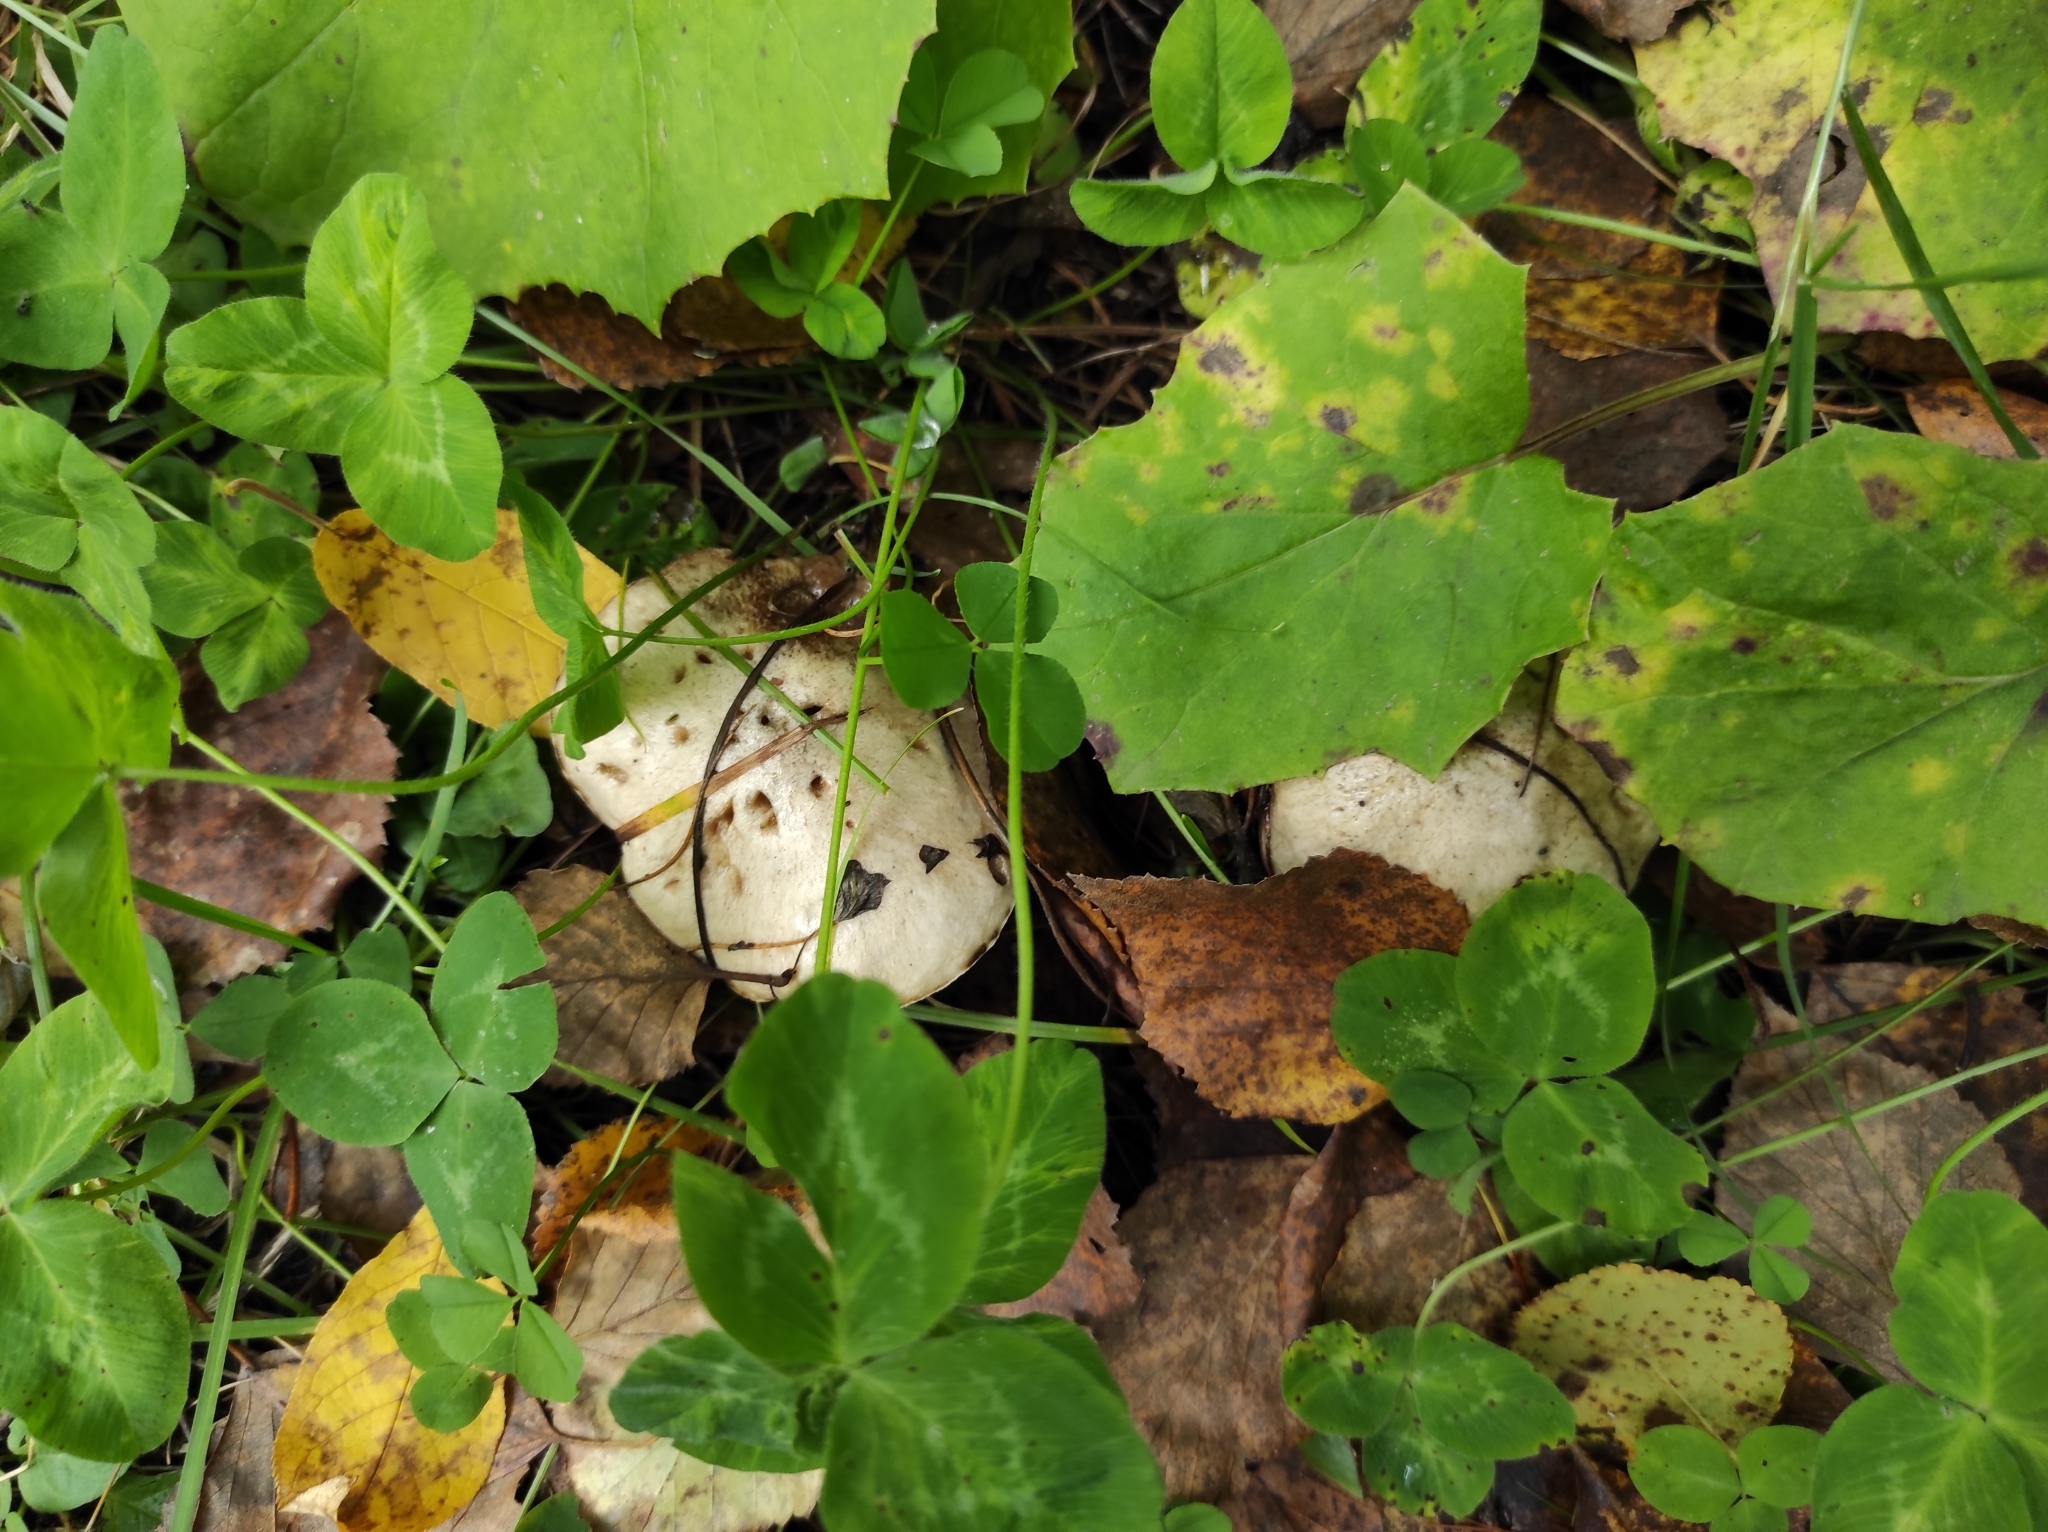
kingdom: Fungi
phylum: Basidiomycota
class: Agaricomycetes
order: Boletales
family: Suillaceae
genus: Suillus
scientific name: Suillus viscidus
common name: Sticky bolete
